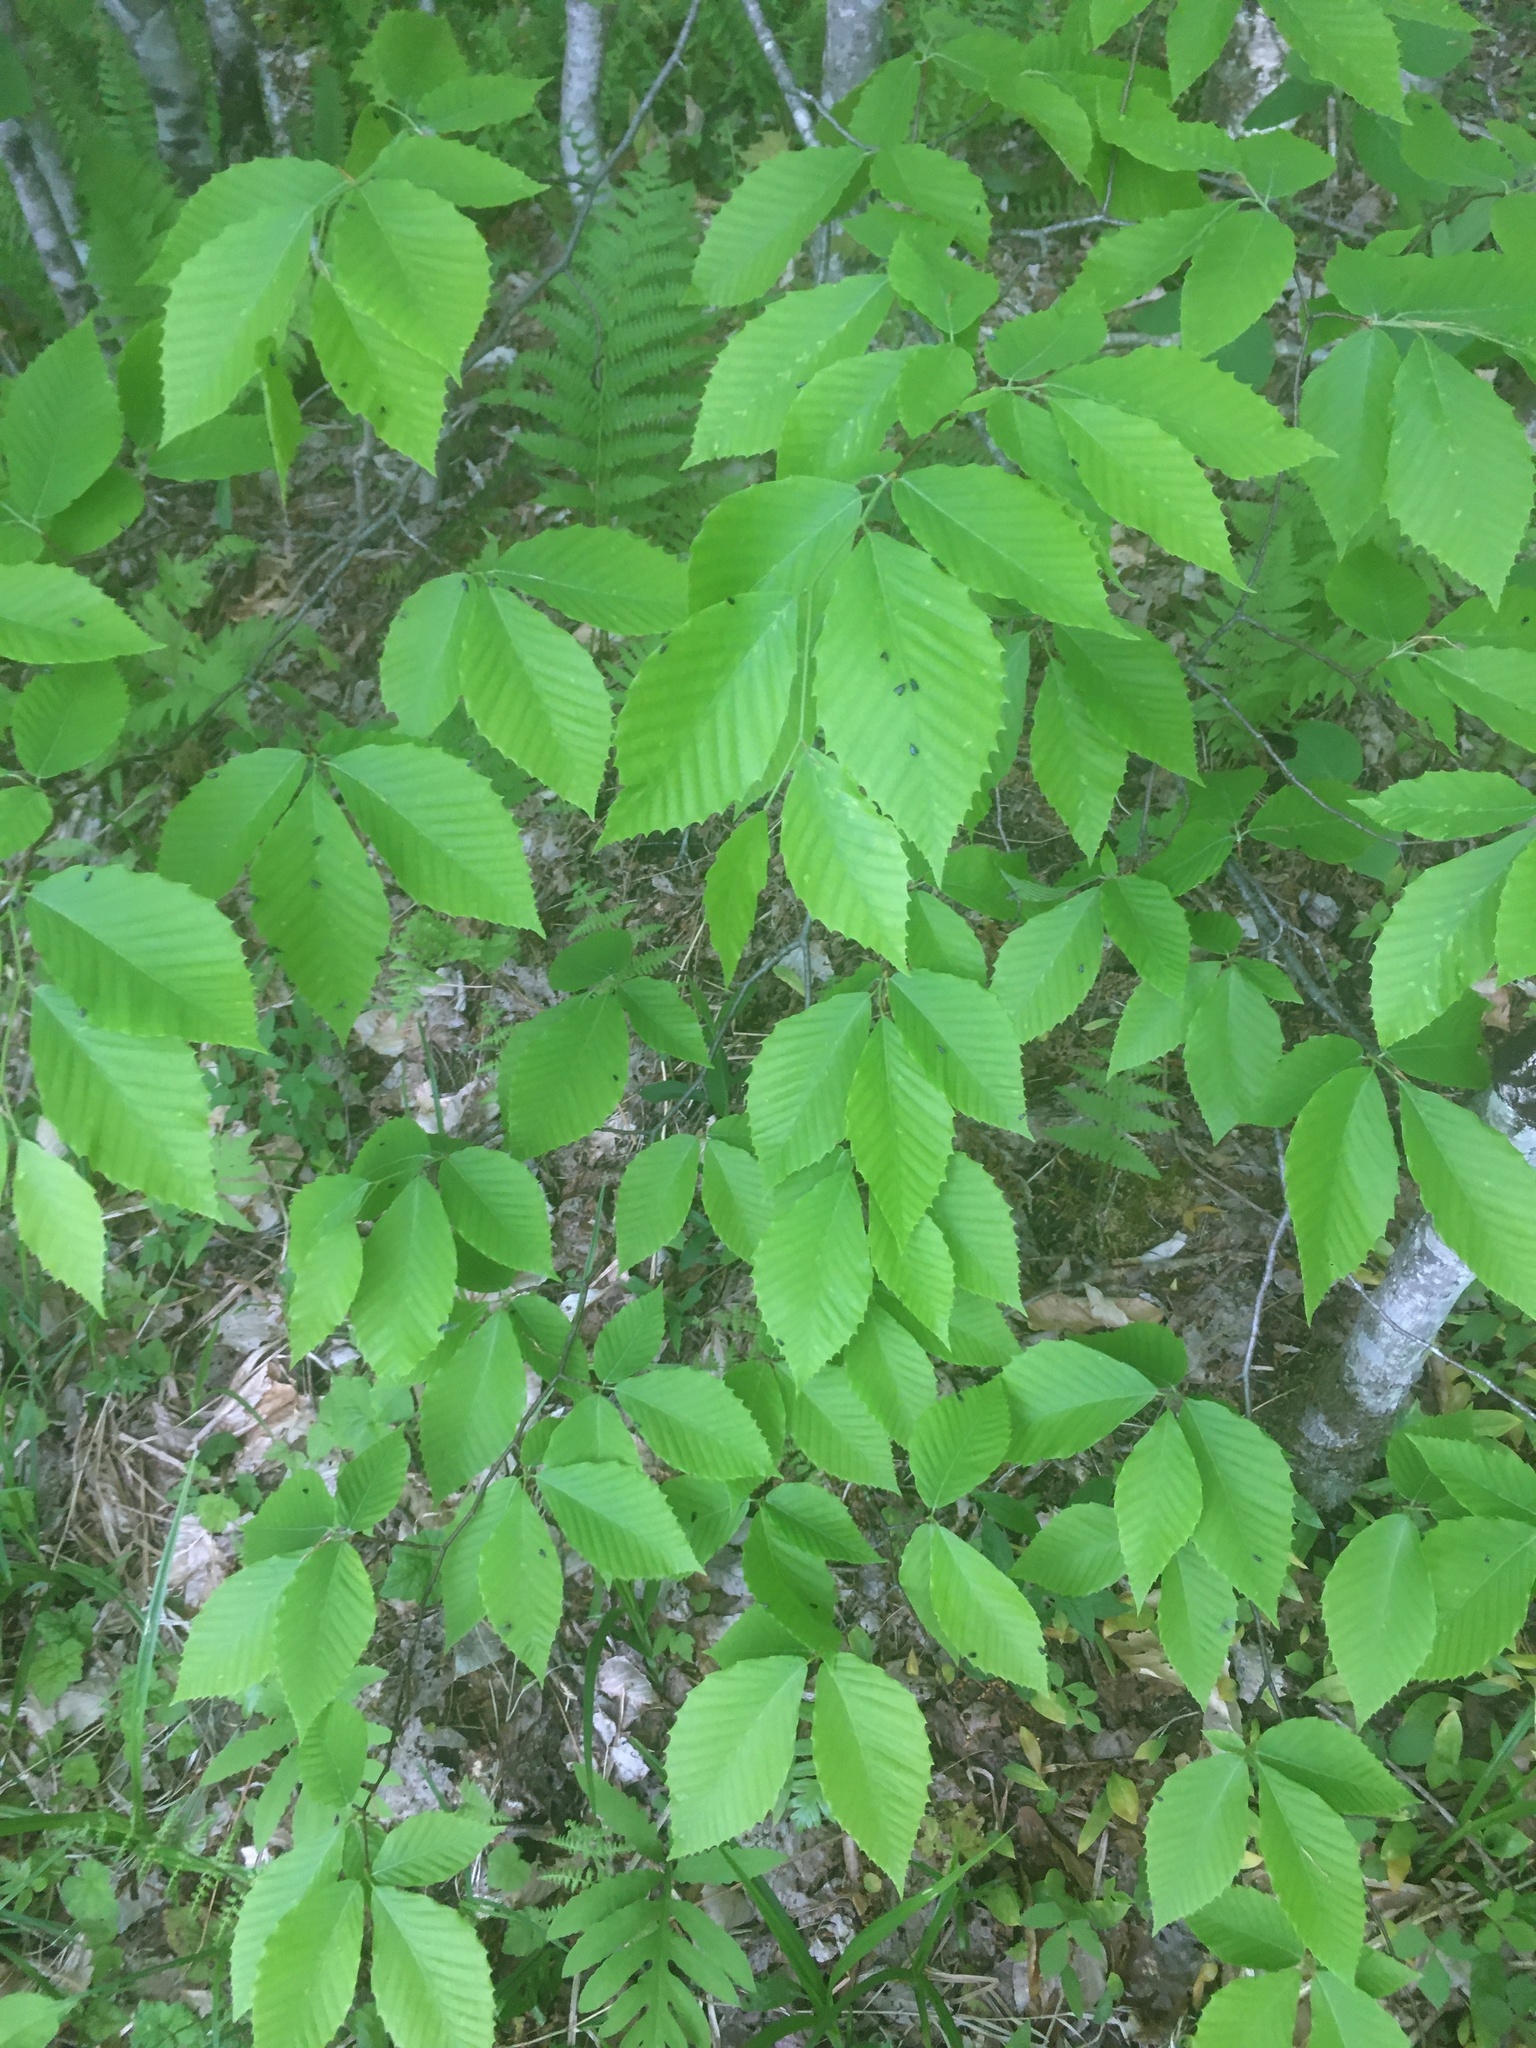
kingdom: Plantae
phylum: Tracheophyta
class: Magnoliopsida
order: Fagales
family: Fagaceae
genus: Fagus
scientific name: Fagus grandifolia
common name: American beech
